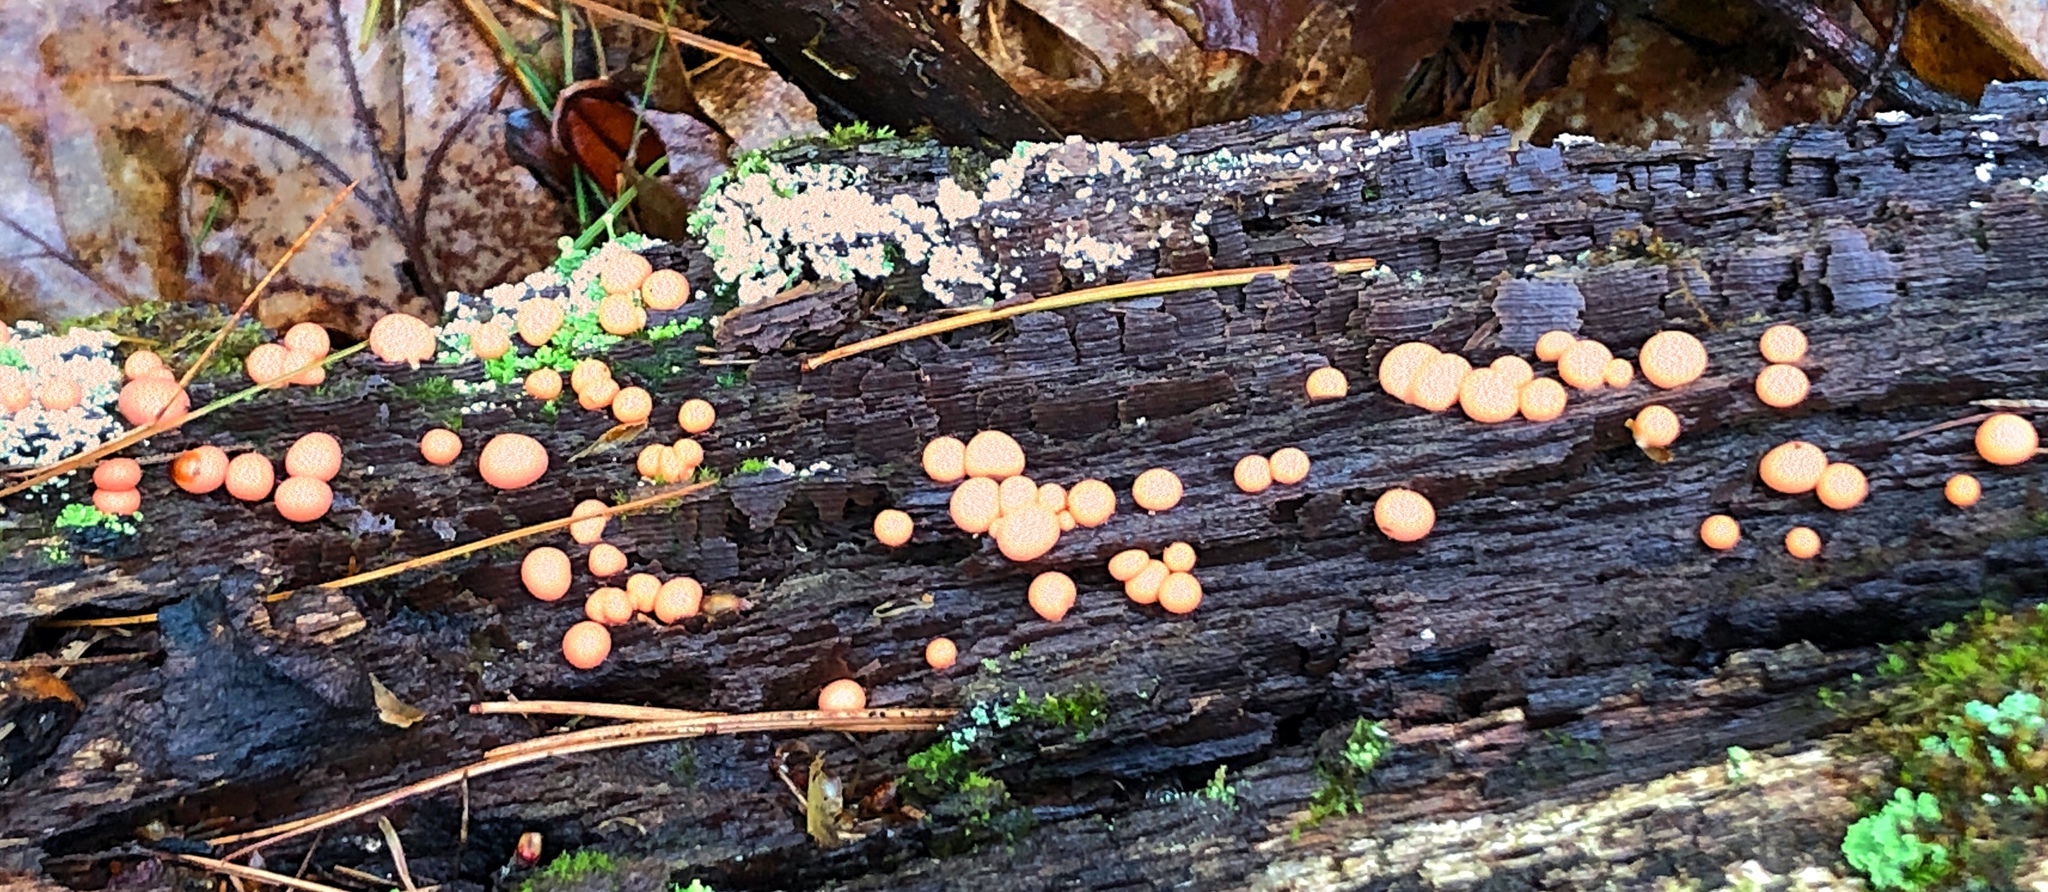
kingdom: Protozoa
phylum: Mycetozoa
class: Myxomycetes
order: Cribrariales
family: Tubiferaceae
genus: Lycogala
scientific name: Lycogala epidendrum
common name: Wolf's milk
